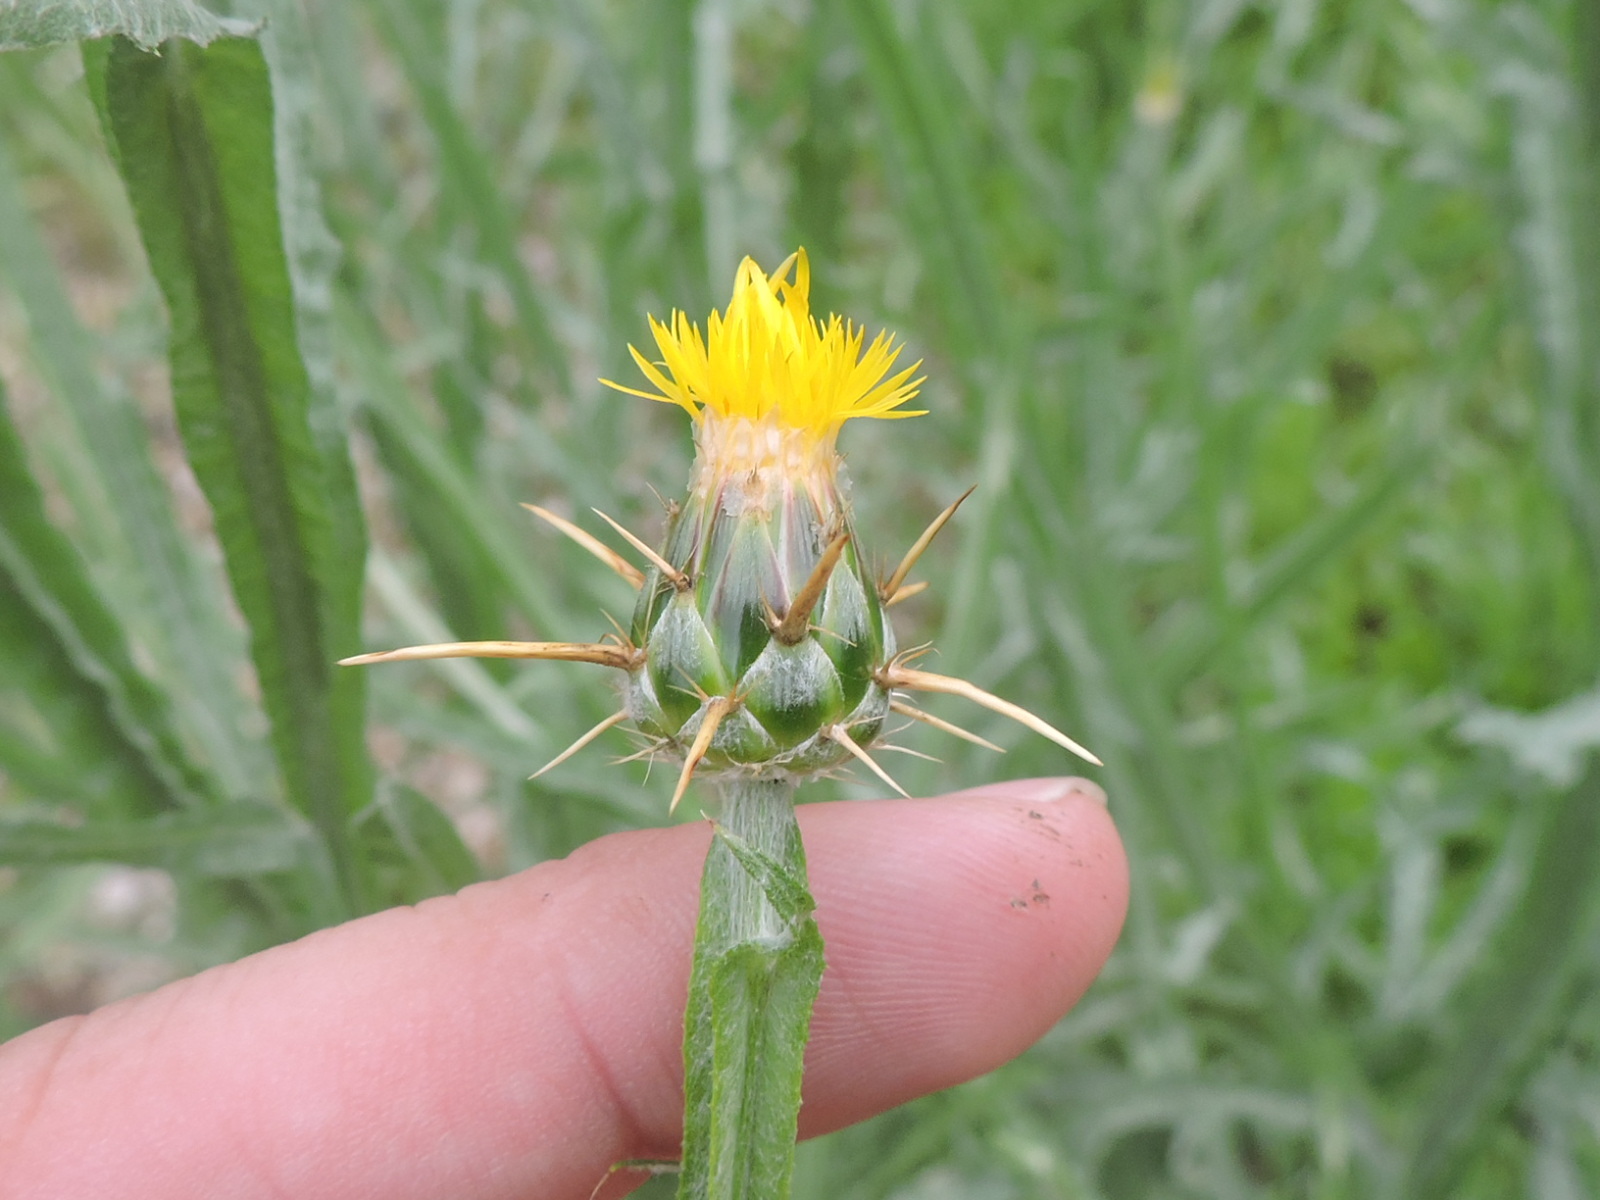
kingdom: Plantae
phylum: Tracheophyta
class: Magnoliopsida
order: Asterales
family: Asteraceae
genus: Centaurea
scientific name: Centaurea solstitialis
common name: Yellow star-thistle
